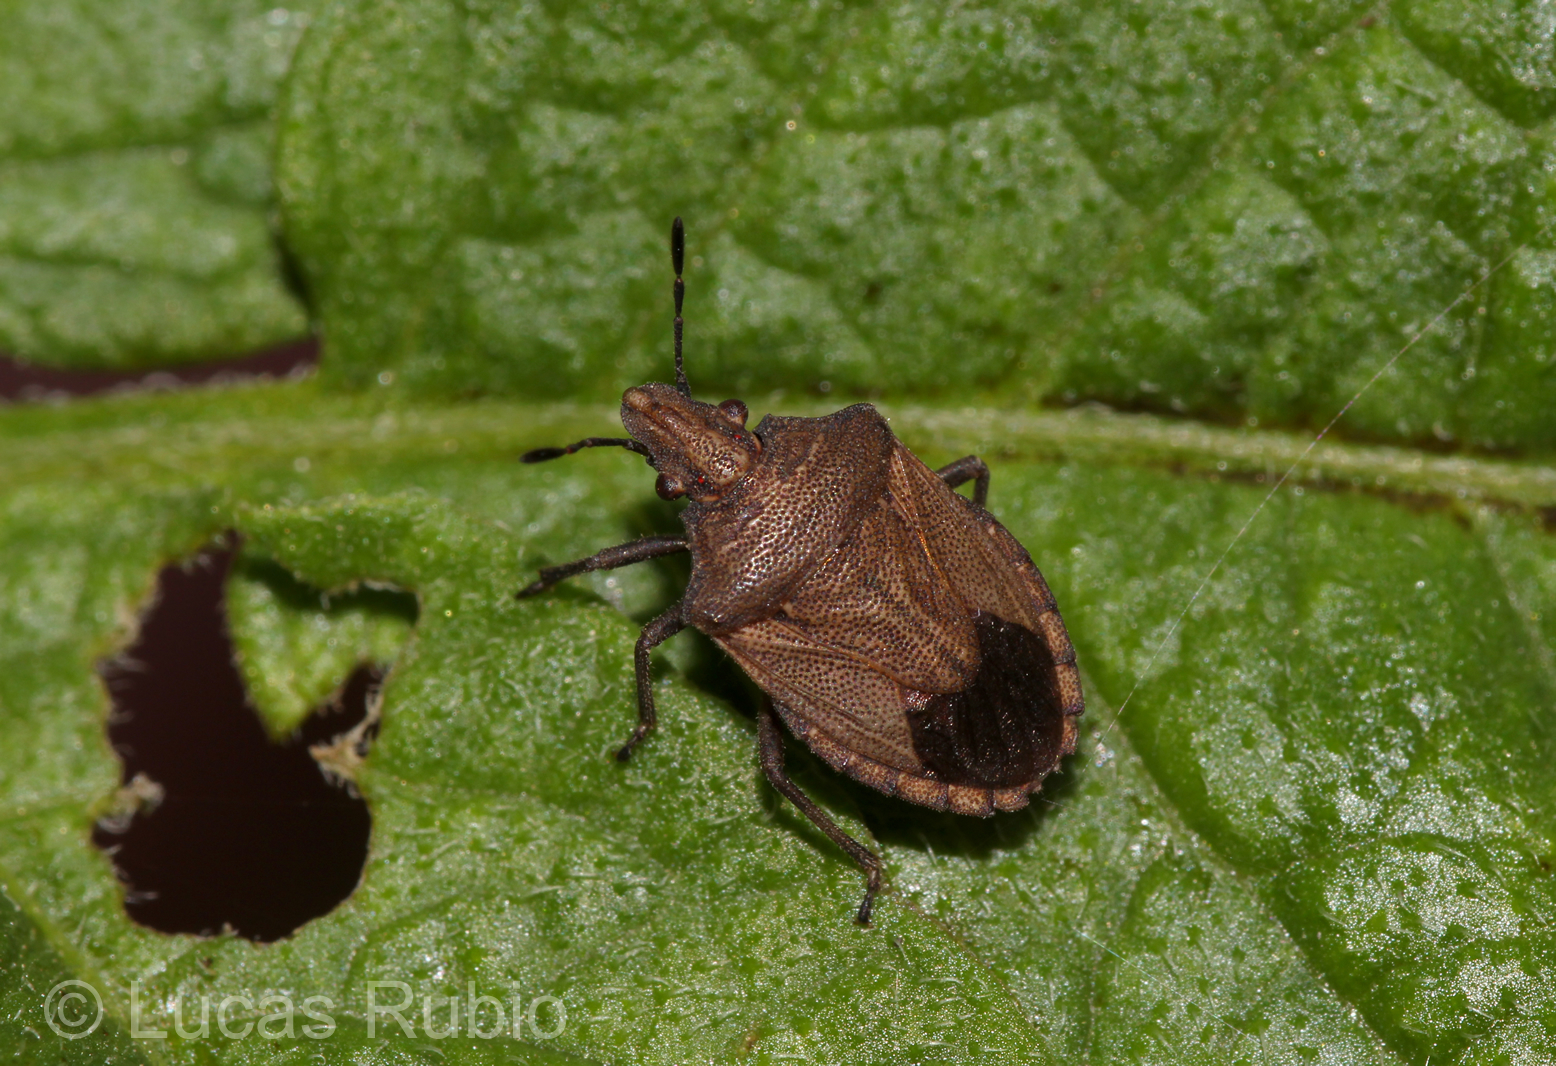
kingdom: Animalia
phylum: Arthropoda
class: Insecta
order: Hemiptera
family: Pentatomidae
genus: Glyphepomis
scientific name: Glyphepomis adroguensis
